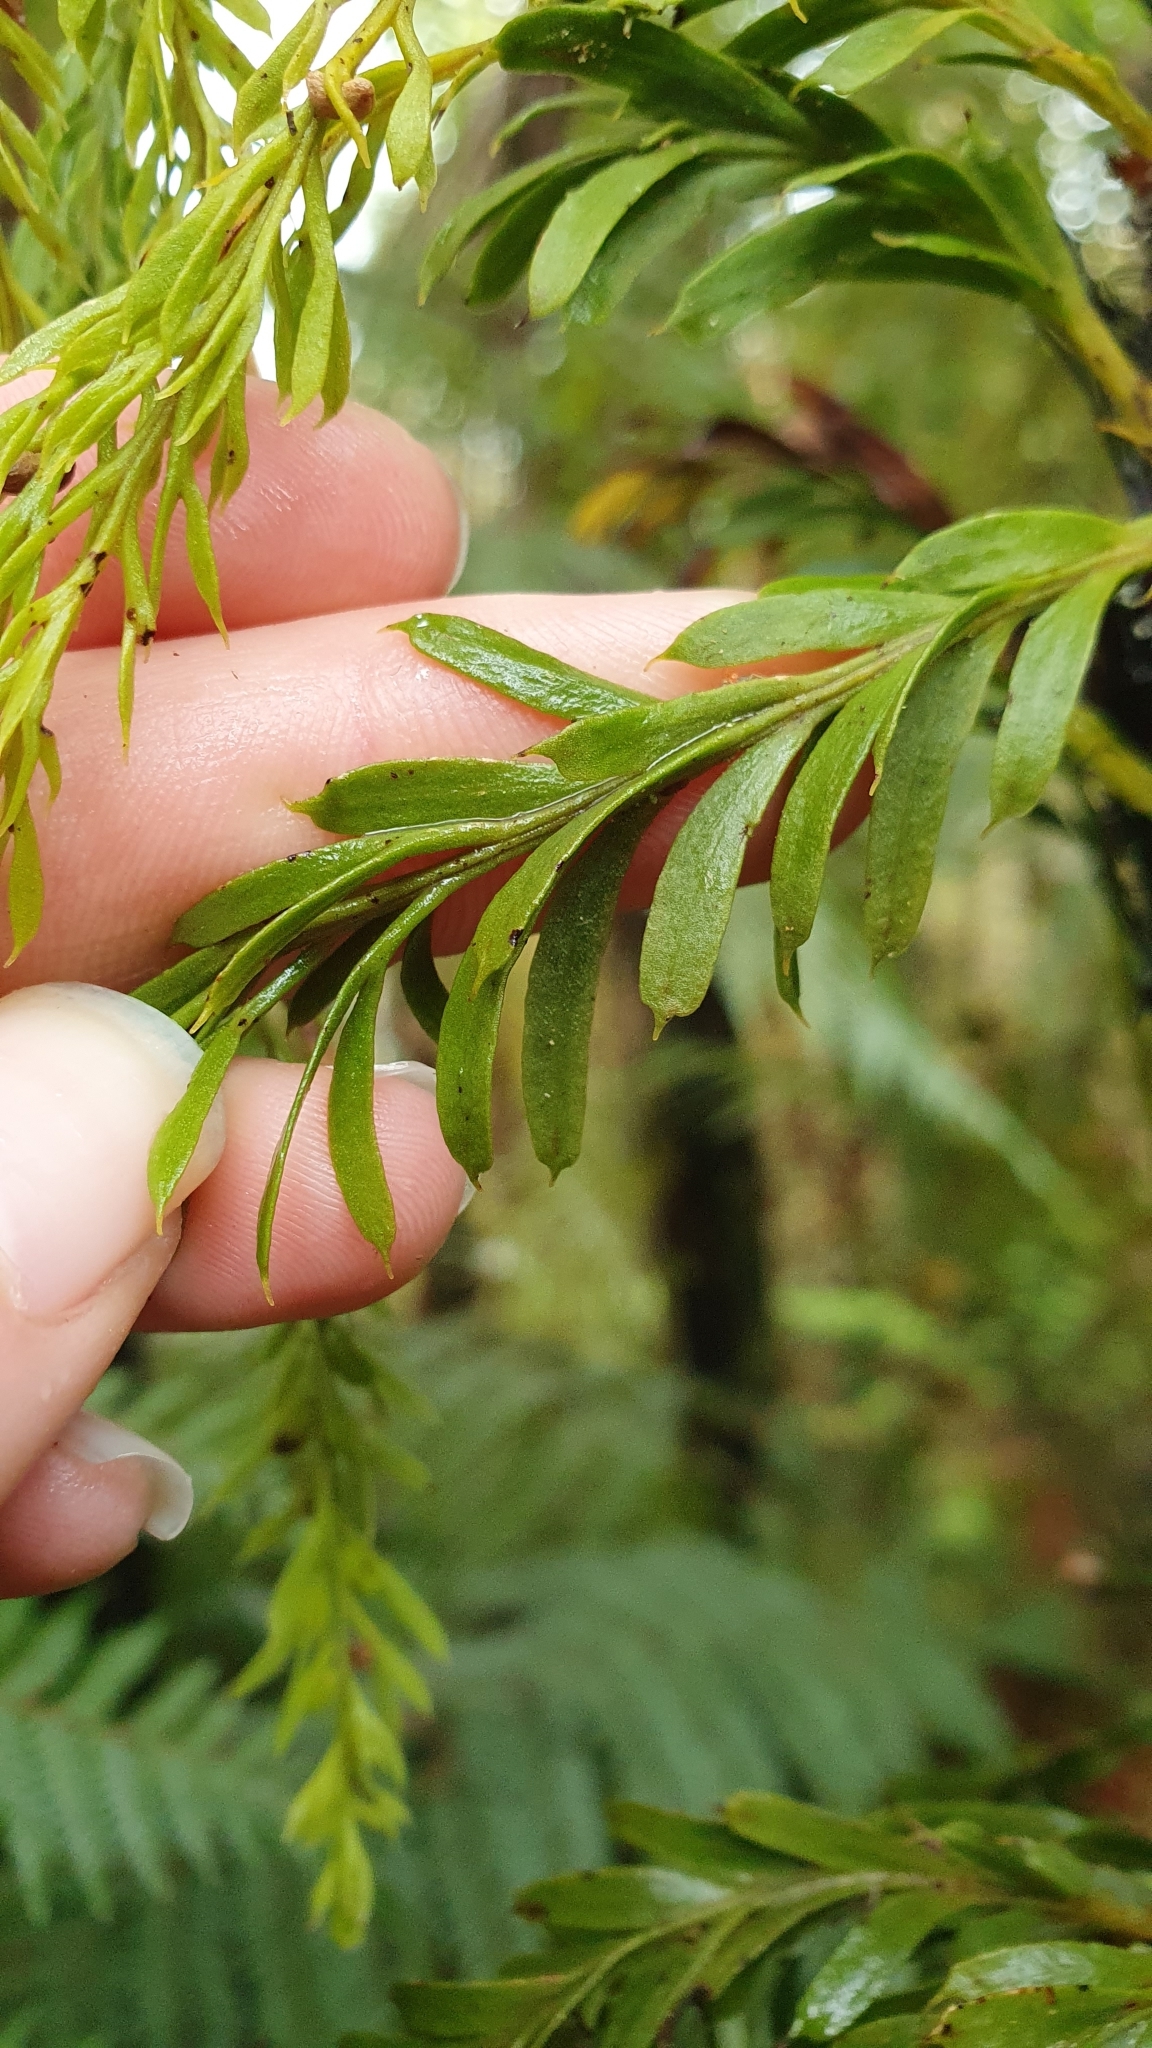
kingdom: Plantae
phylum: Tracheophyta
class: Polypodiopsida
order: Psilotales
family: Psilotaceae
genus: Tmesipteris
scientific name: Tmesipteris elongata
